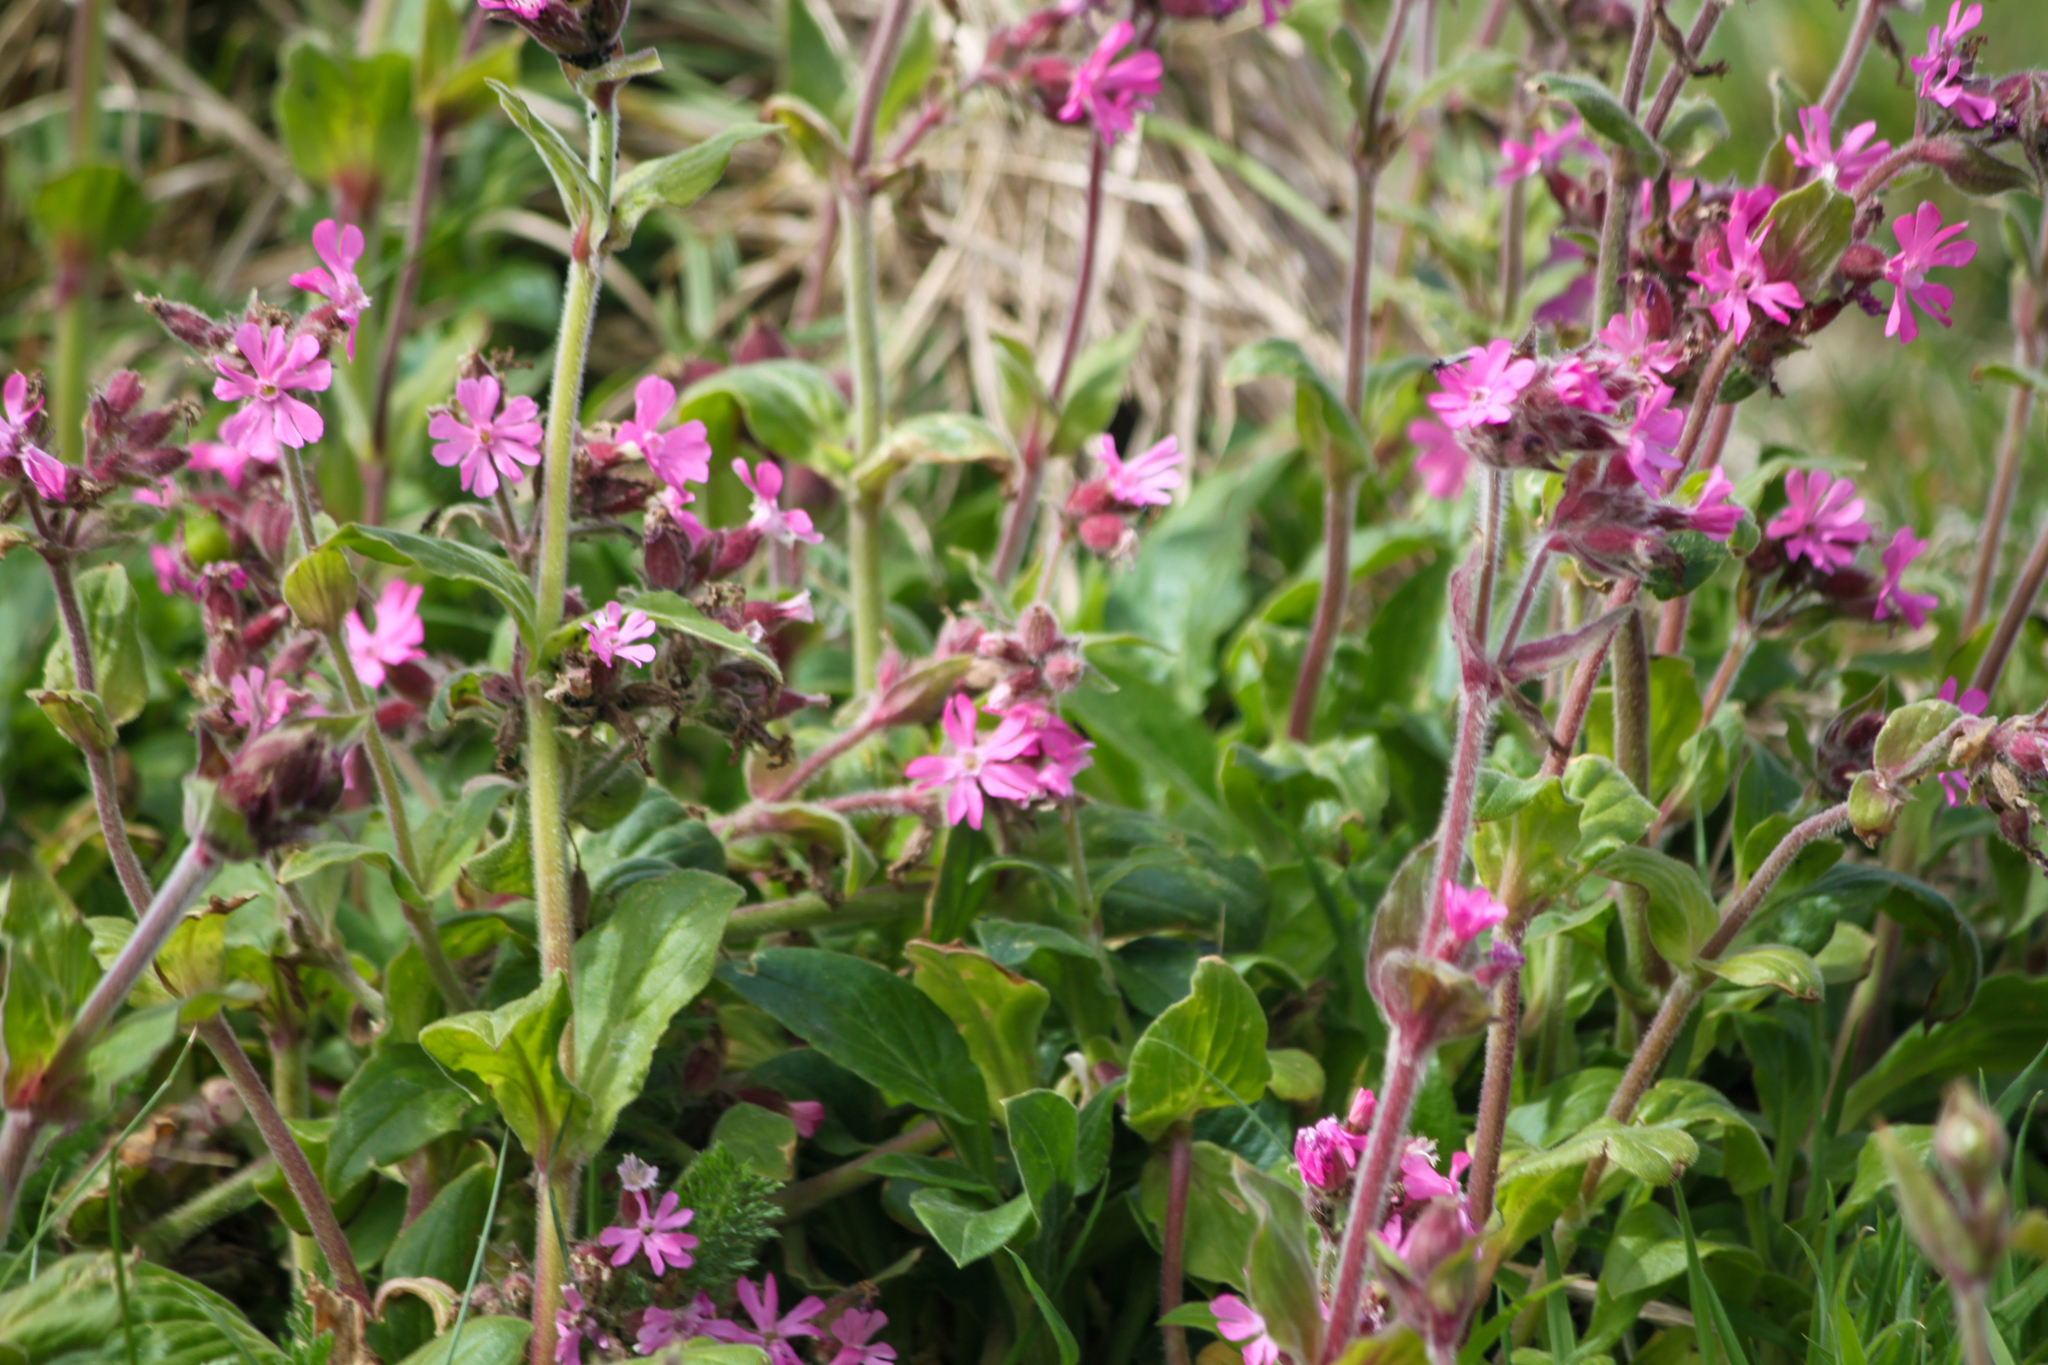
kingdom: Plantae
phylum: Tracheophyta
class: Magnoliopsida
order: Caryophyllales
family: Caryophyllaceae
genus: Silene
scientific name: Silene dioica
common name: Red campion
